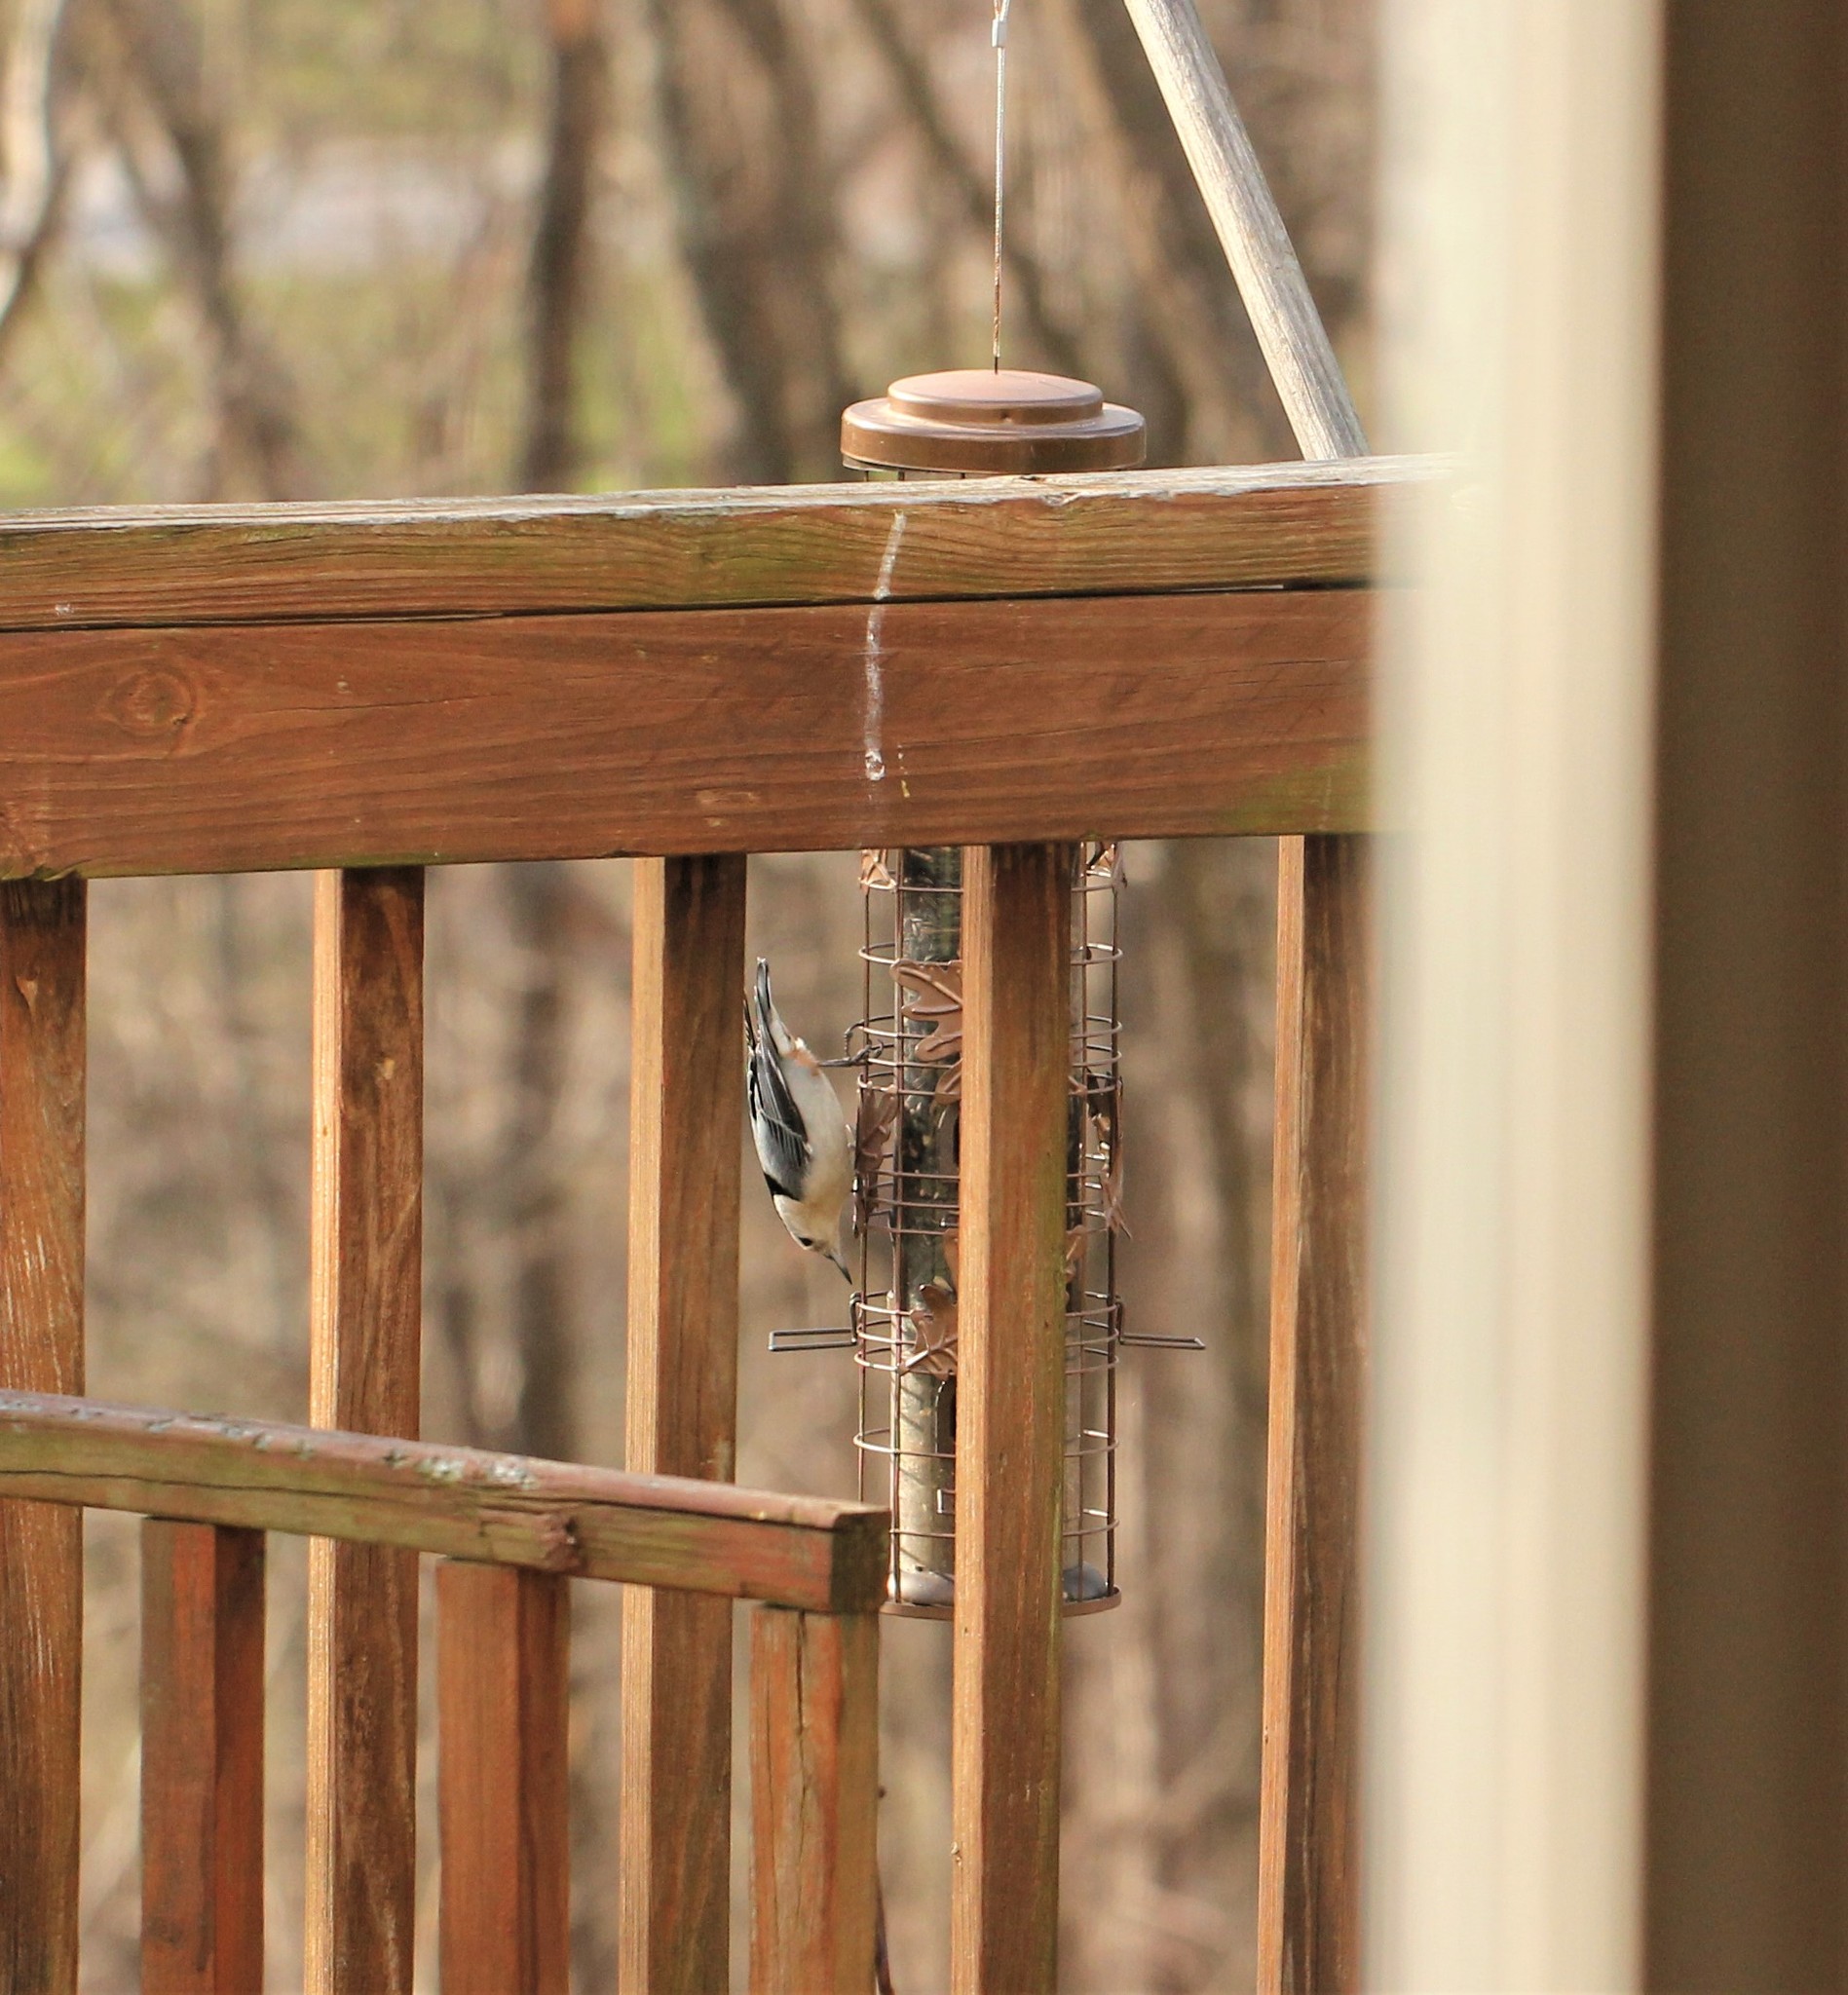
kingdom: Animalia
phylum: Chordata
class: Aves
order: Passeriformes
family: Sittidae
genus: Sitta
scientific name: Sitta carolinensis
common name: White-breasted nuthatch
